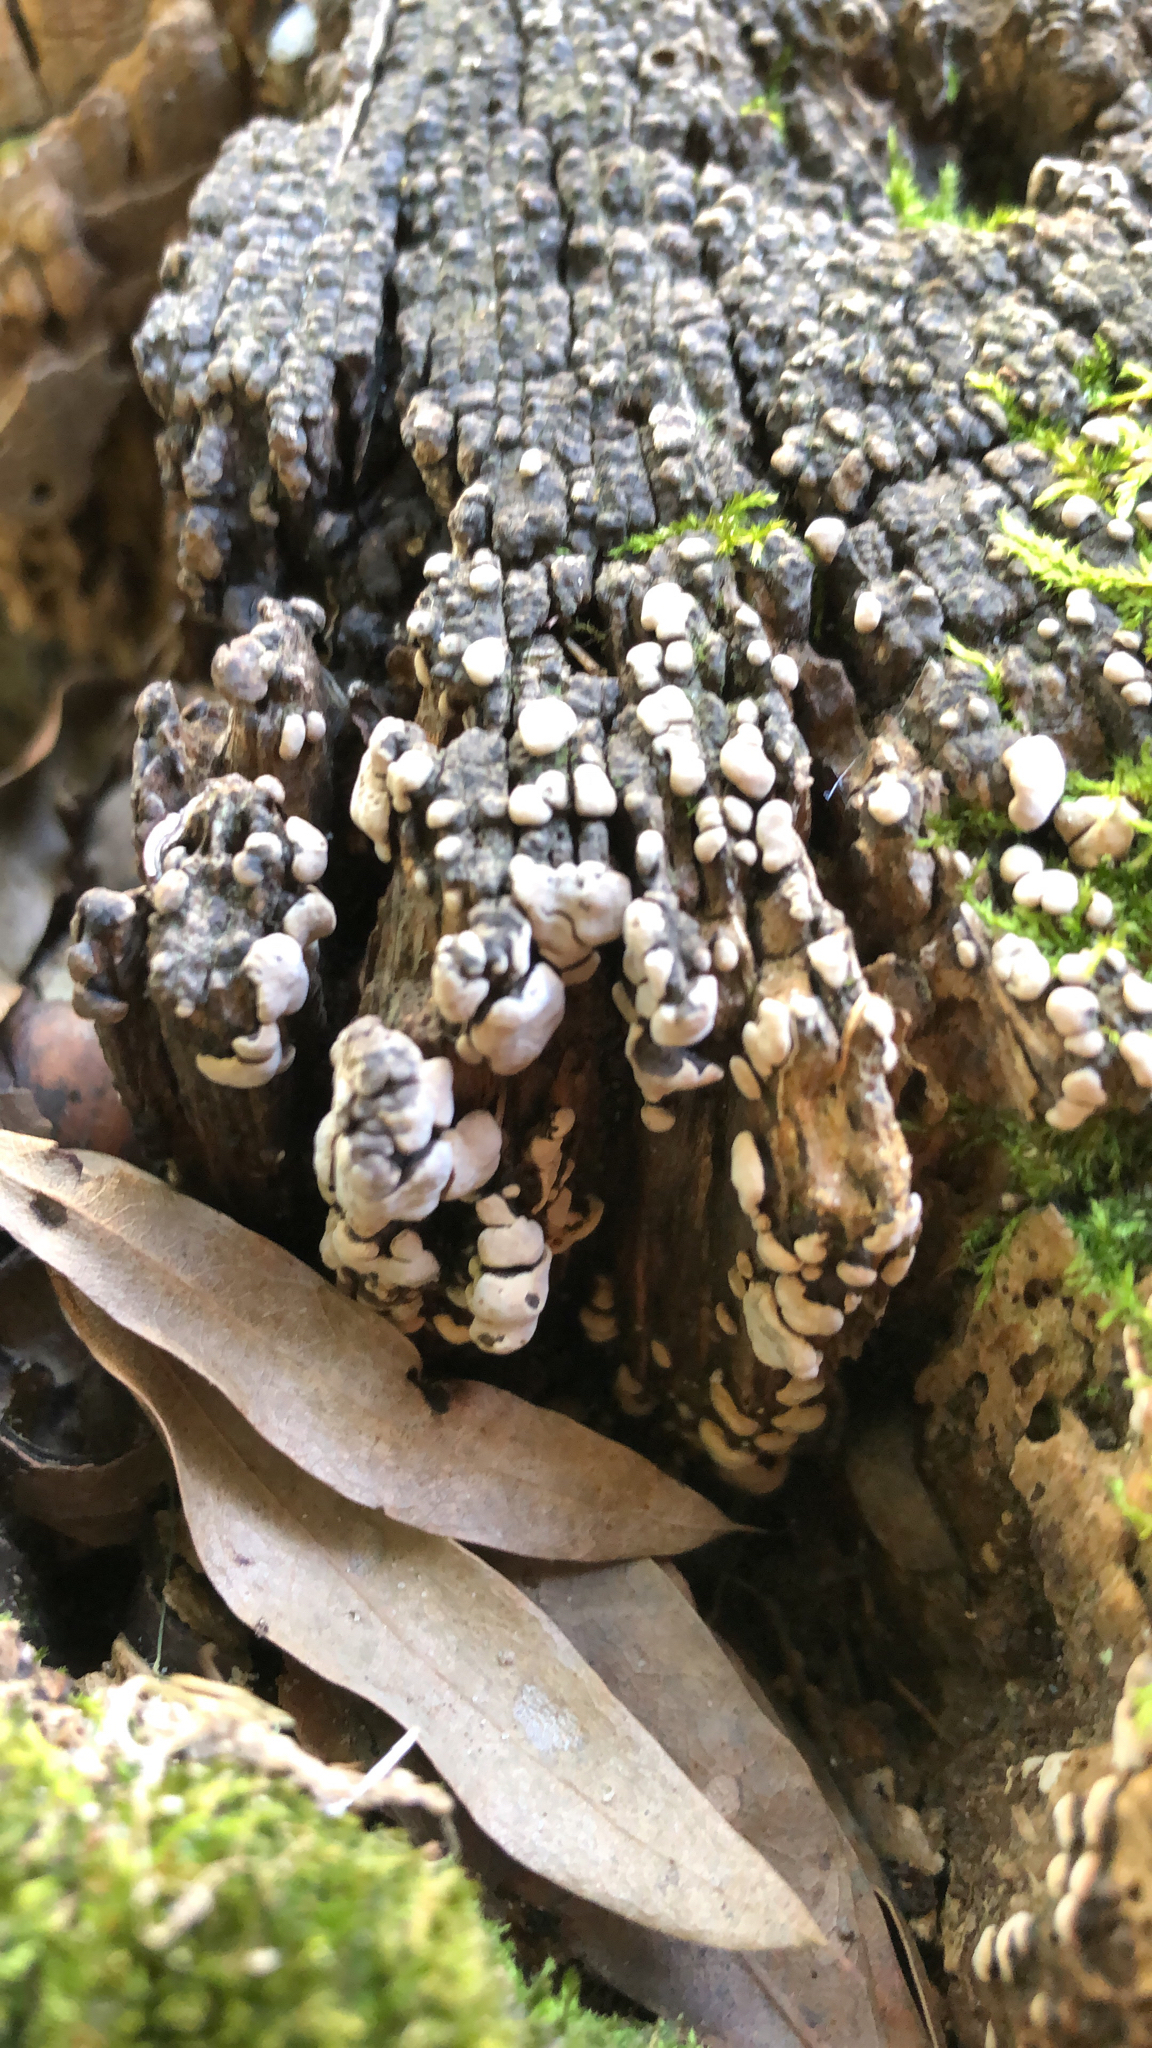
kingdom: Fungi
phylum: Basidiomycota
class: Agaricomycetes
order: Russulales
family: Stereaceae
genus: Xylobolus
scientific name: Xylobolus frustulatus
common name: Ceramic parchment
